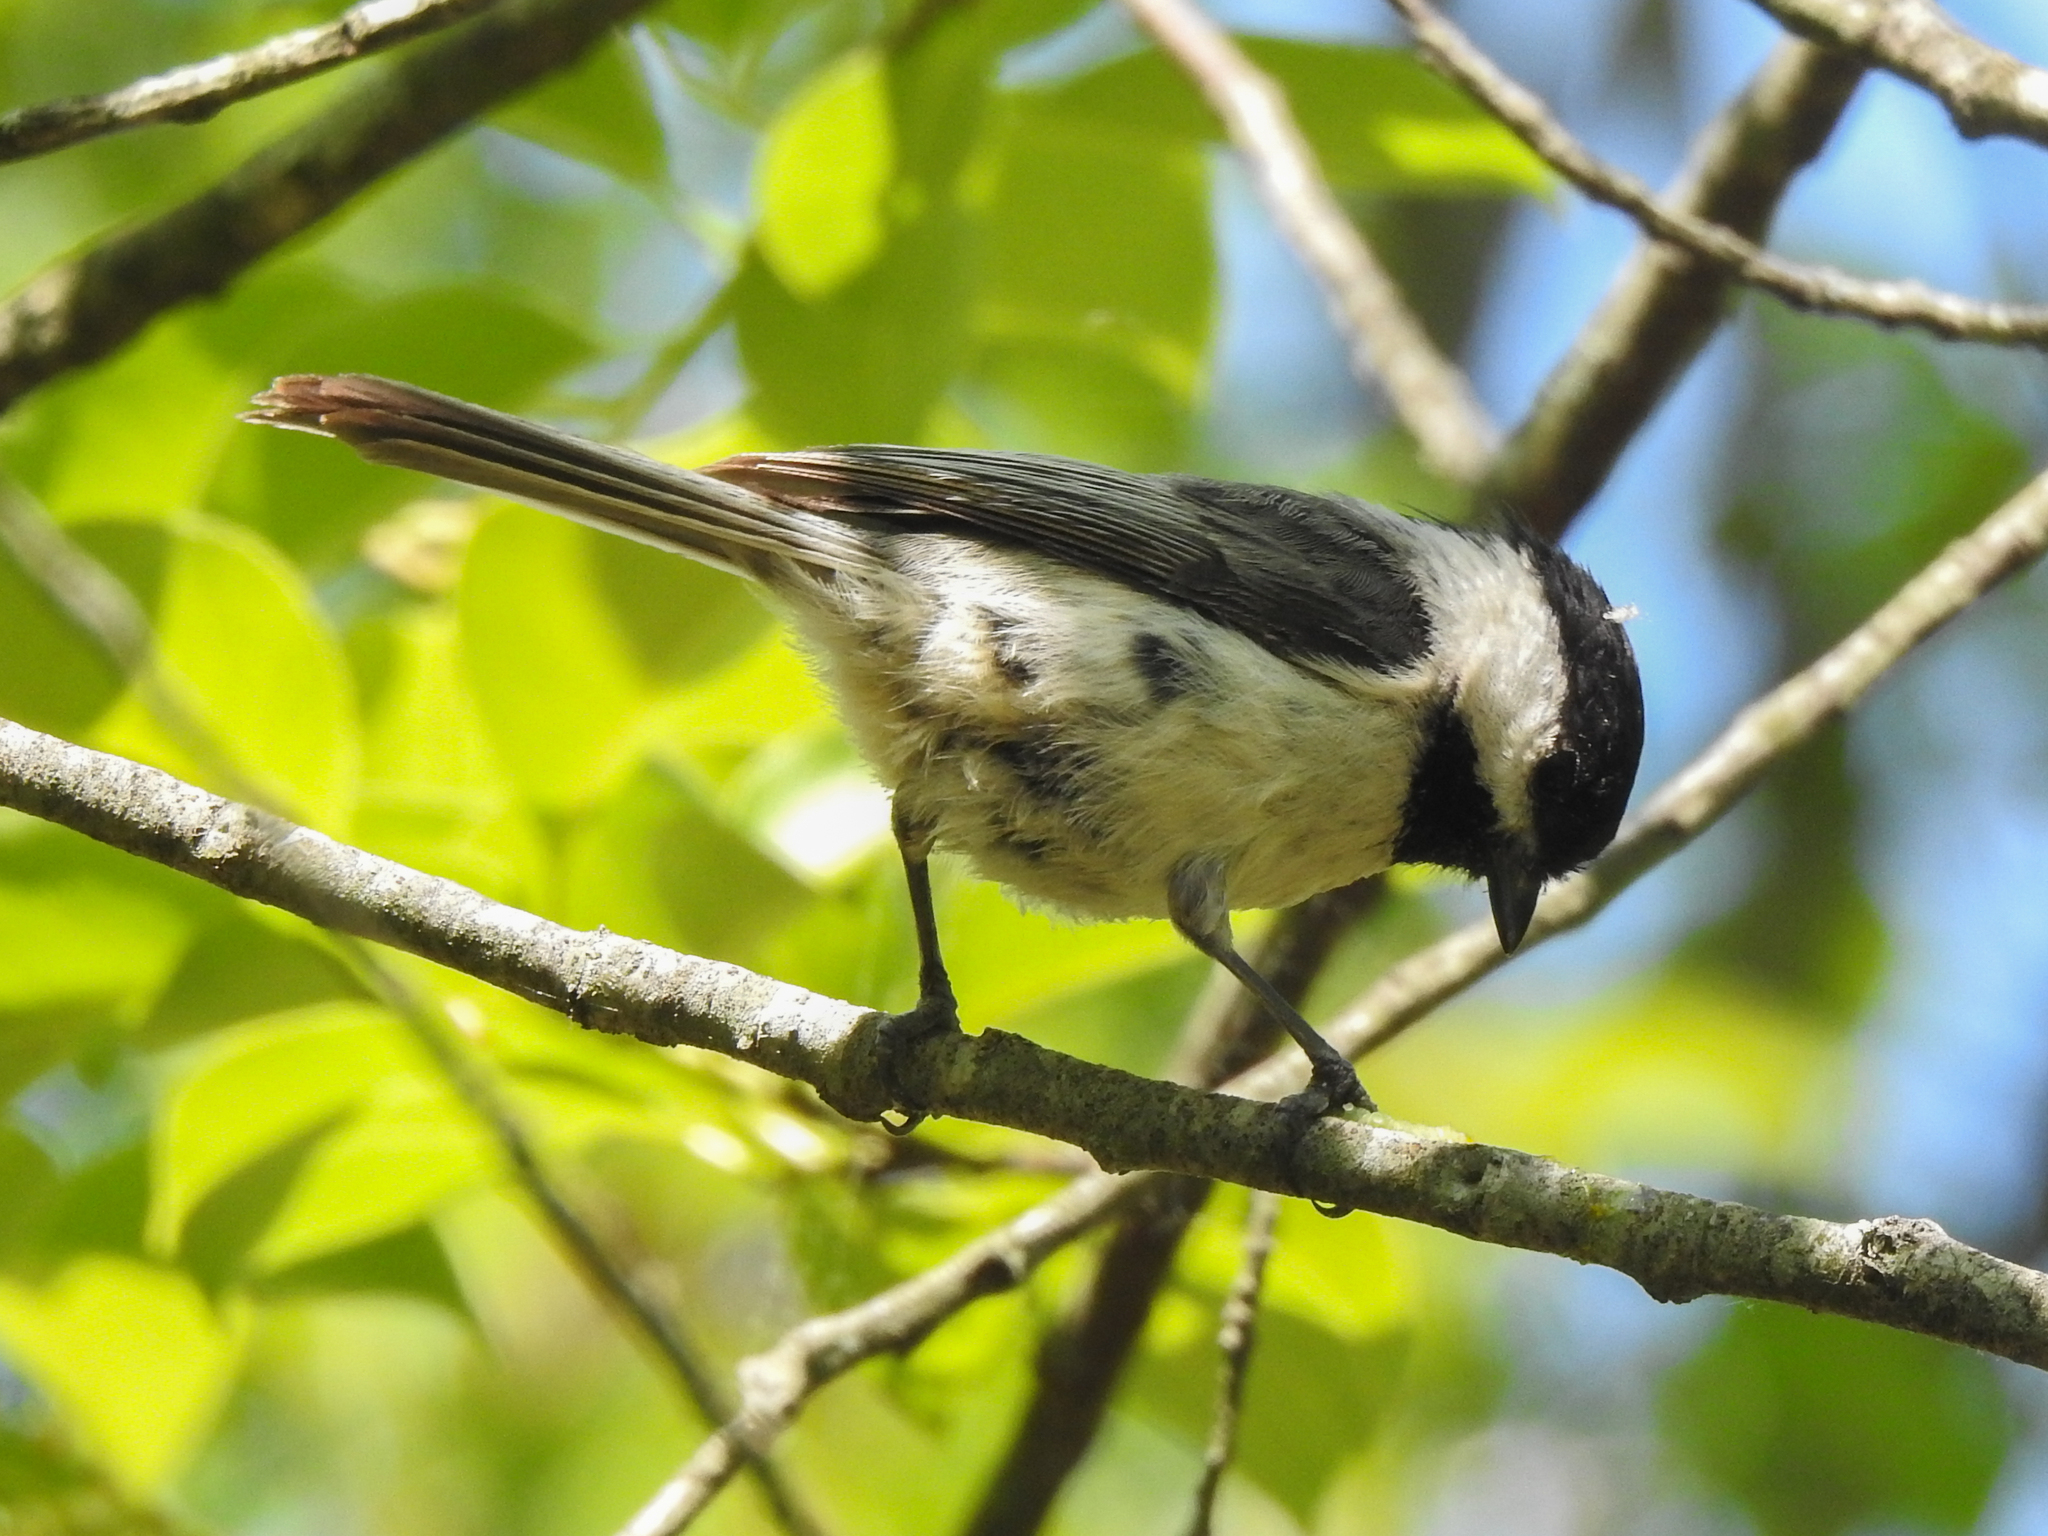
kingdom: Animalia
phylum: Chordata
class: Aves
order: Passeriformes
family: Paridae
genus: Poecile
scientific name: Poecile atricapillus
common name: Black-capped chickadee
